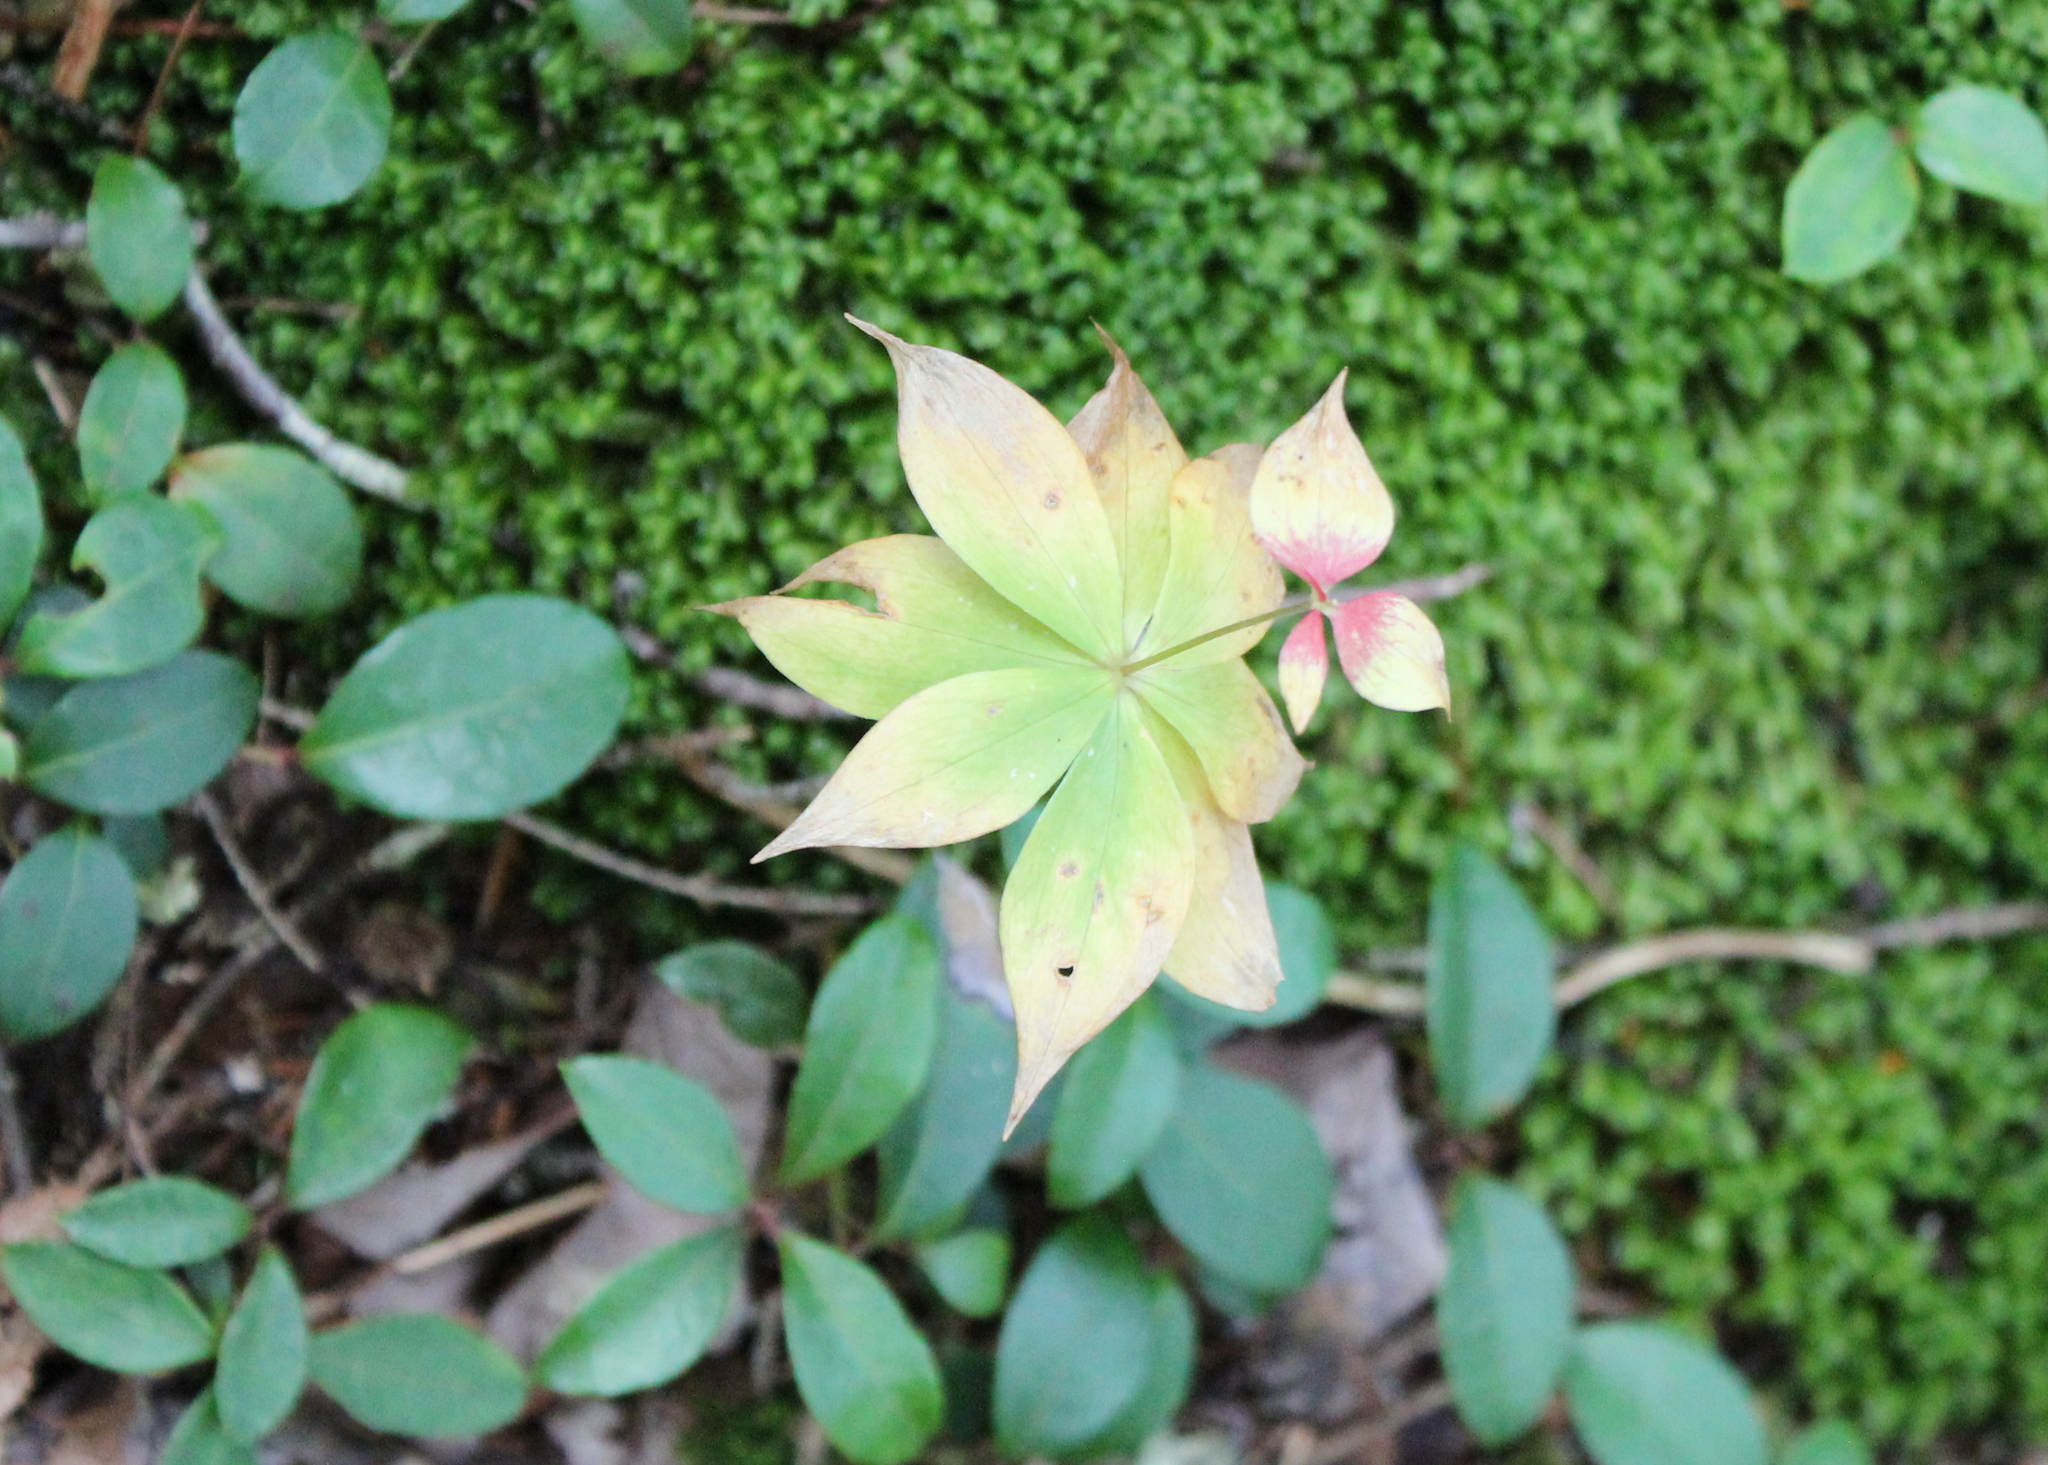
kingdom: Plantae
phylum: Tracheophyta
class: Liliopsida
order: Liliales
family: Liliaceae
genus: Medeola
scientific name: Medeola virginiana
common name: Indian cucumber-root
